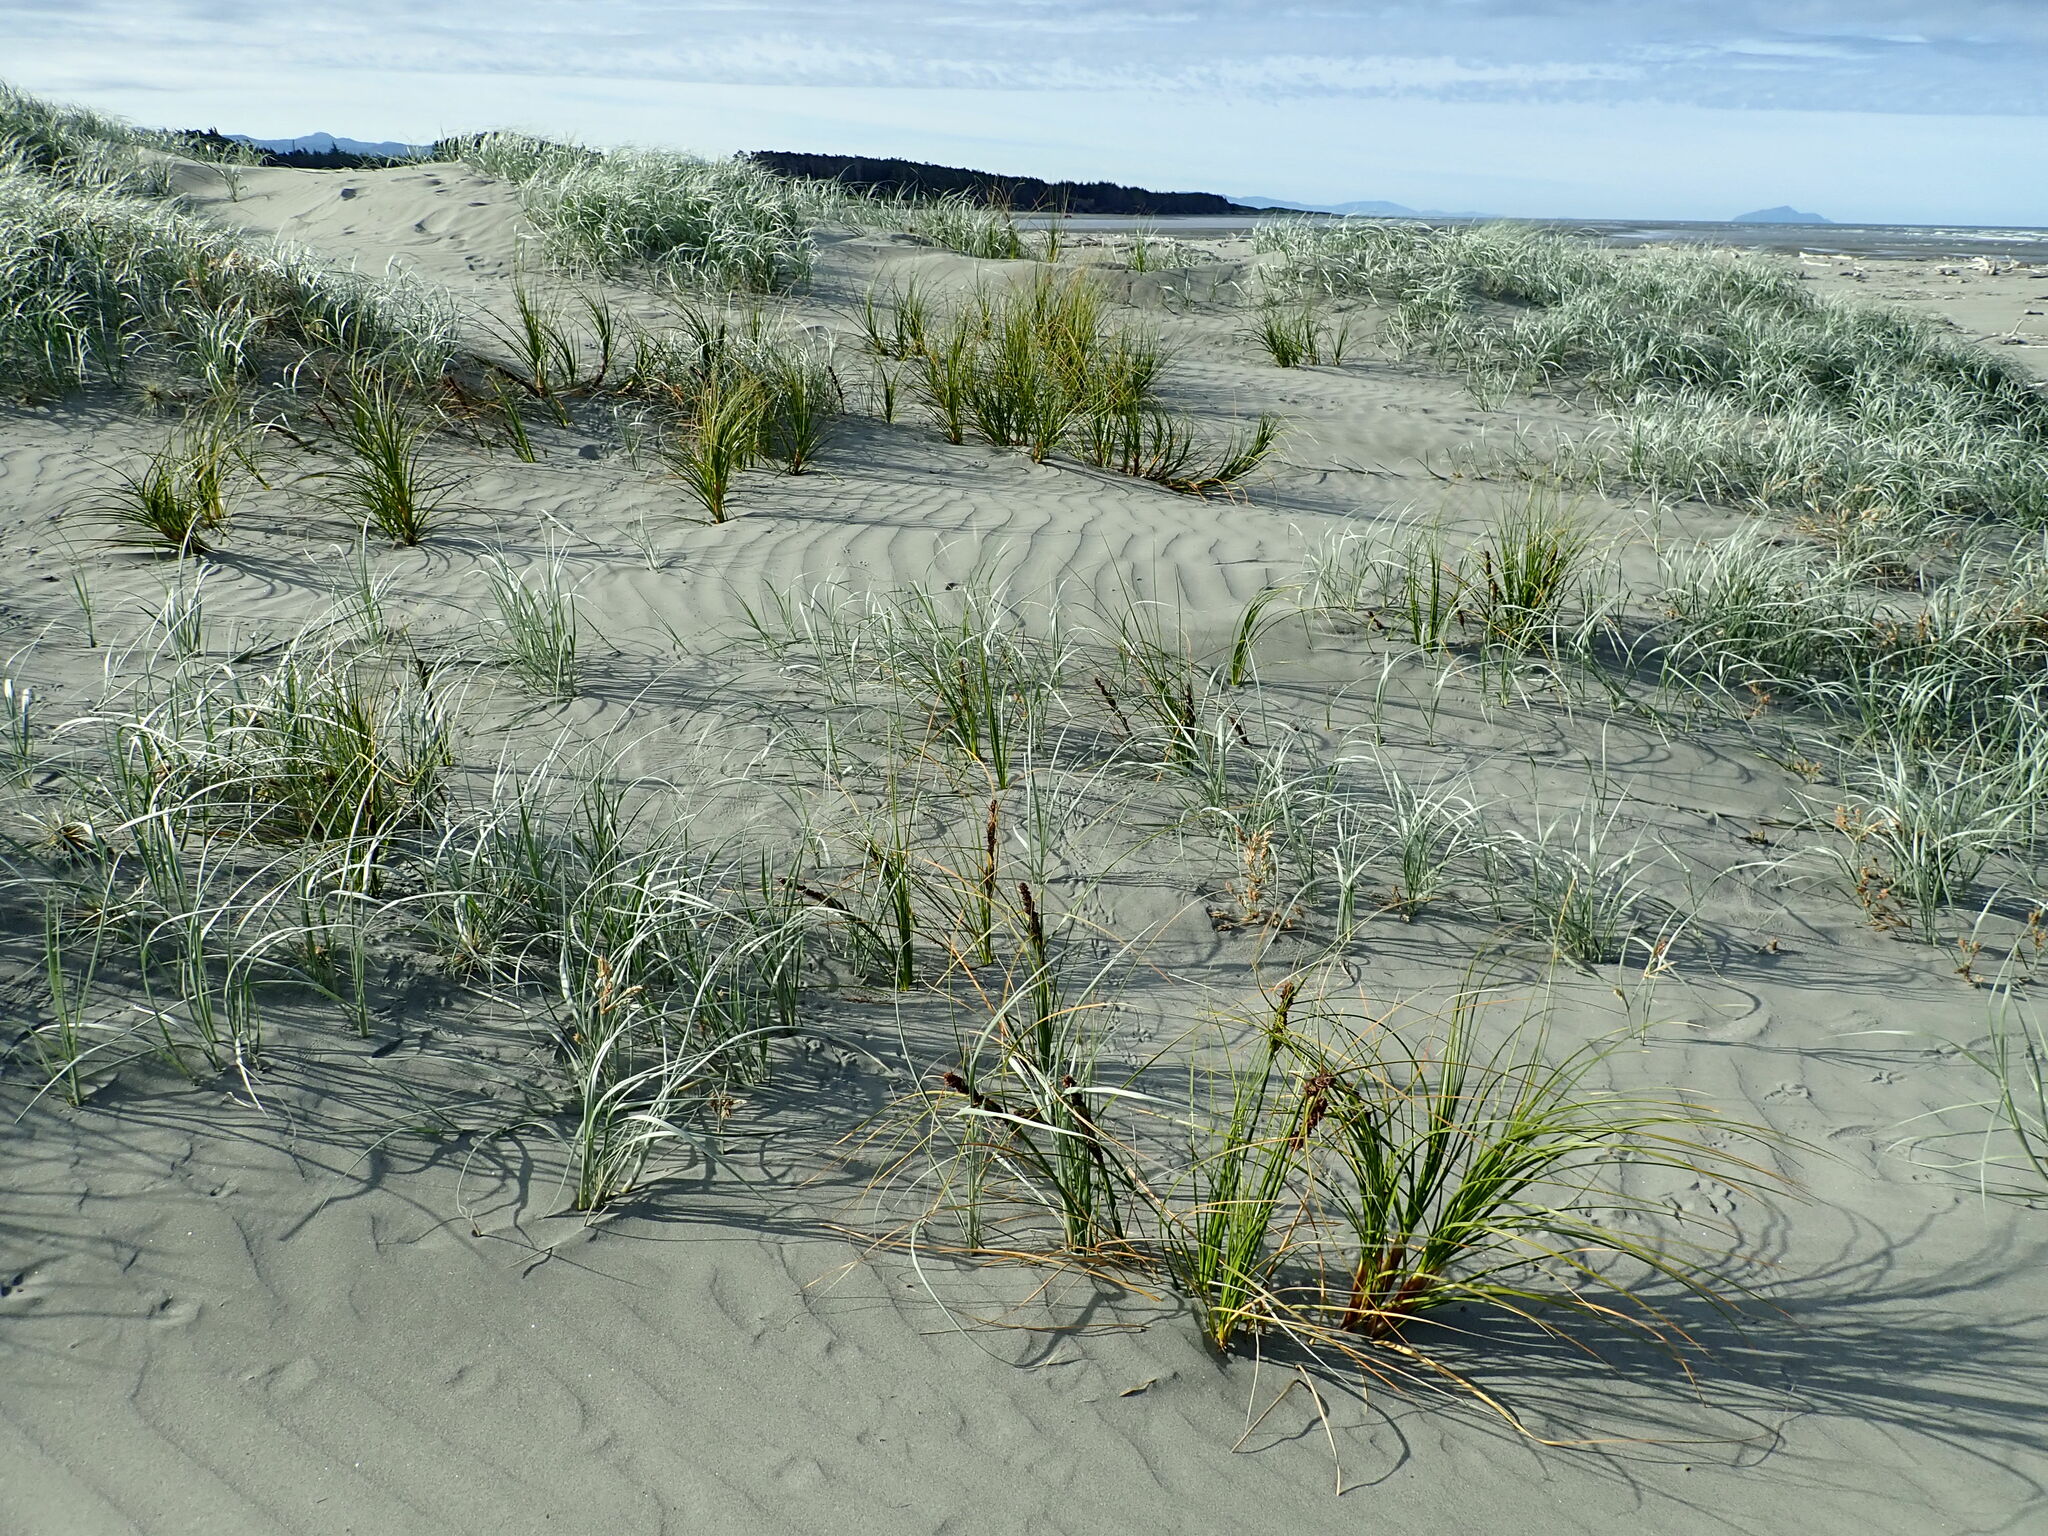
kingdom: Plantae
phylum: Tracheophyta
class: Liliopsida
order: Poales
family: Cyperaceae
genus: Ficinia
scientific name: Ficinia spiralis
